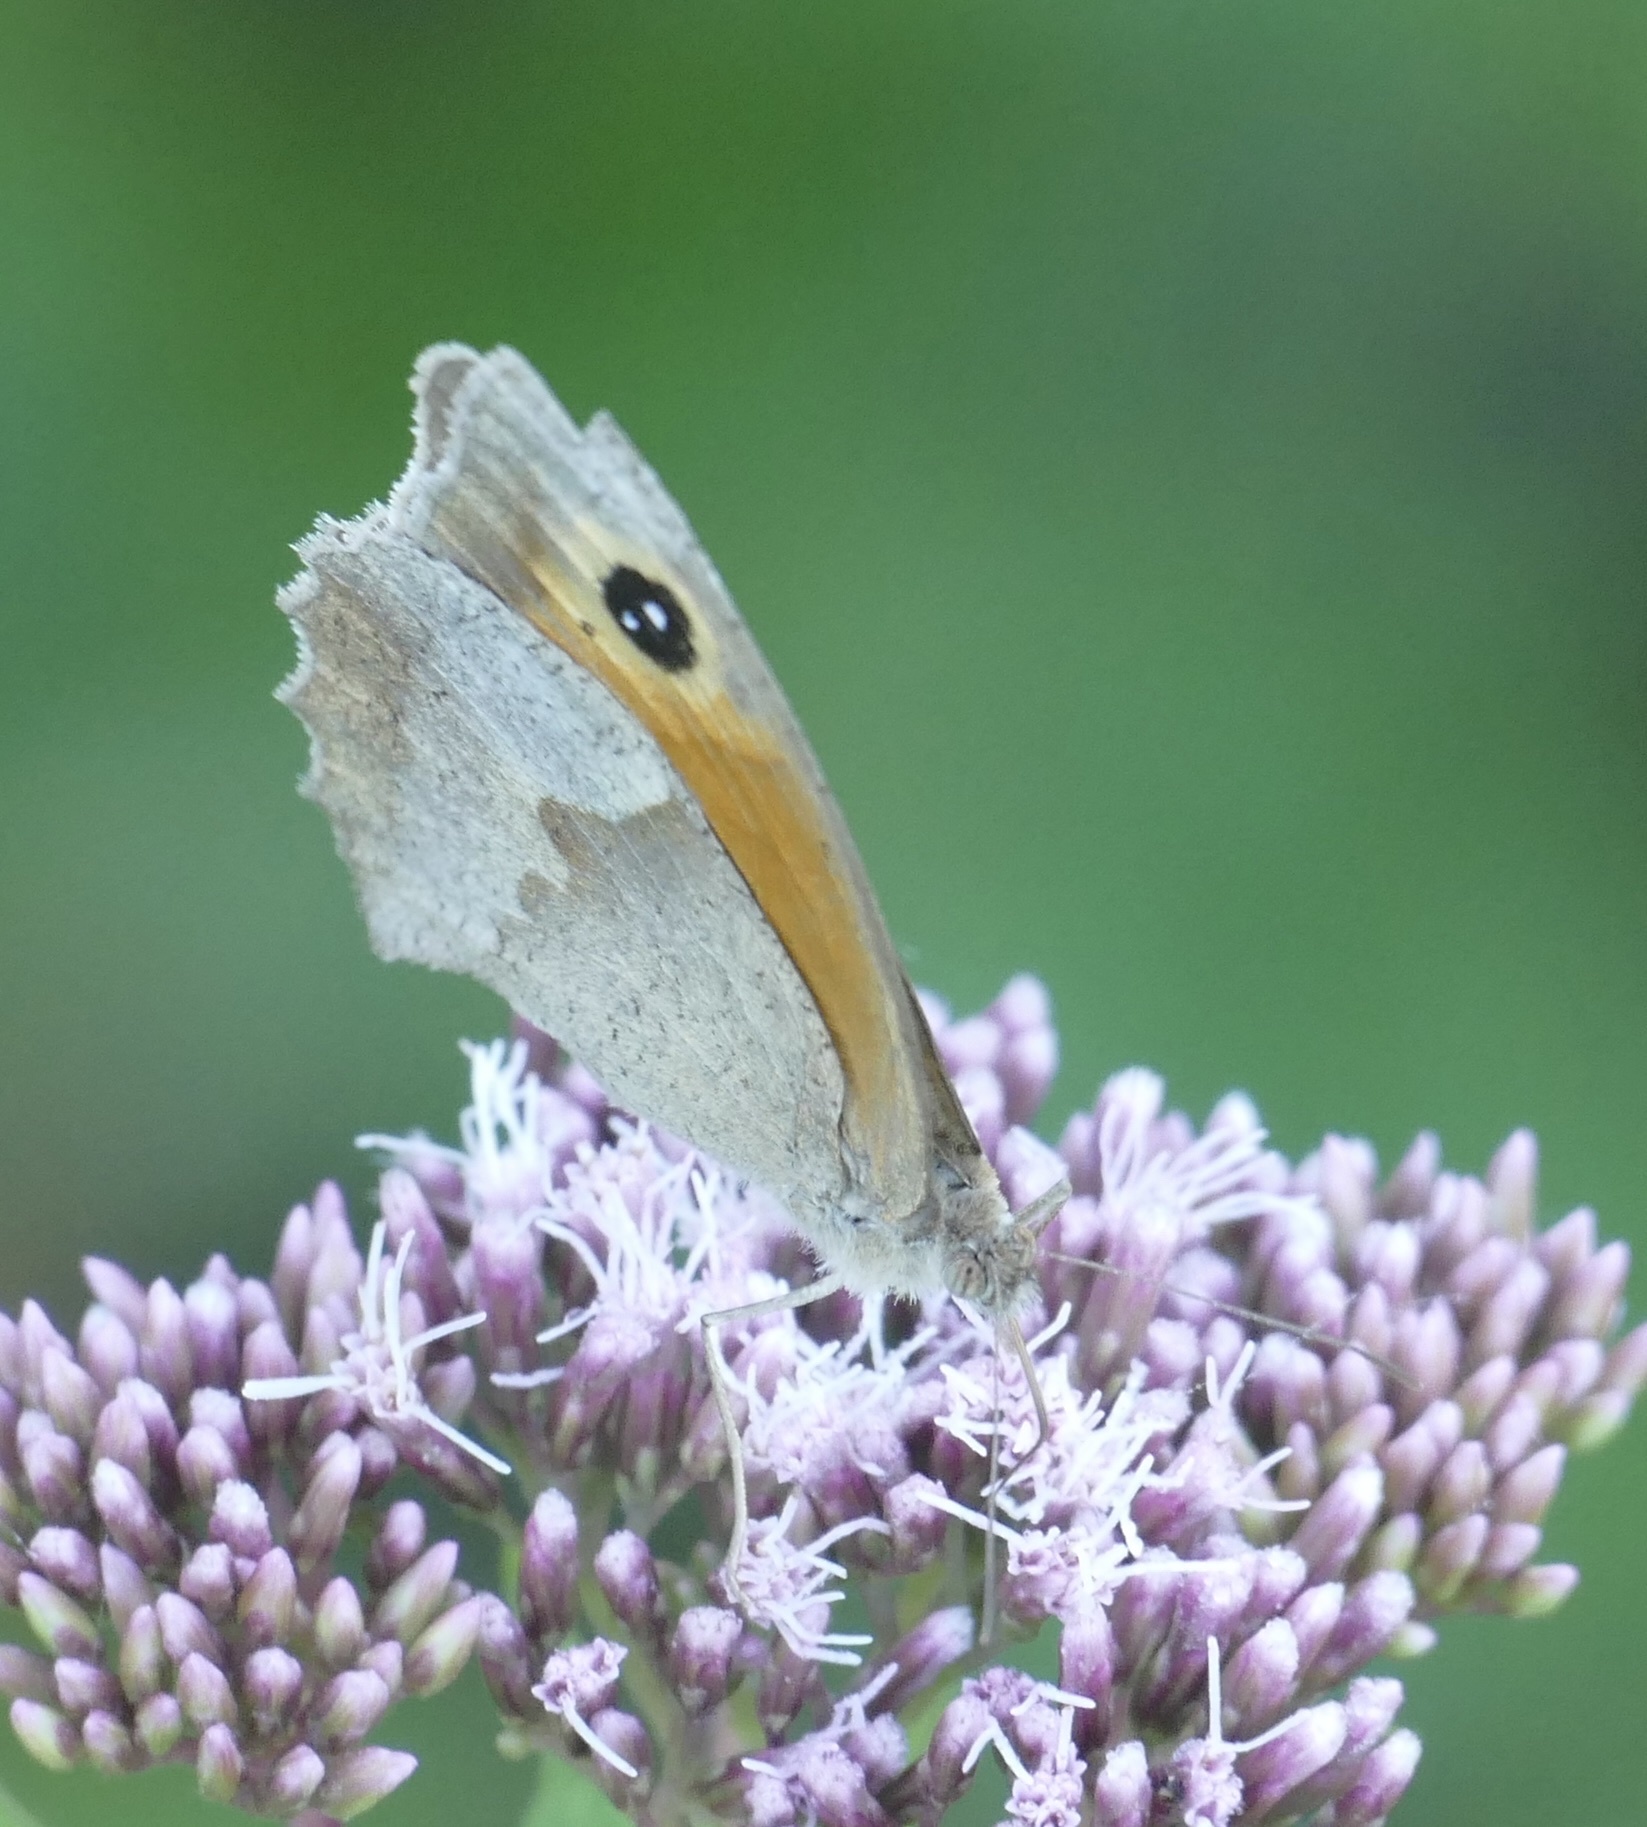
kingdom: Animalia
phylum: Arthropoda
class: Insecta
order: Lepidoptera
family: Nymphalidae
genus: Maniola
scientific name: Maniola jurtina
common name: Meadow brown
